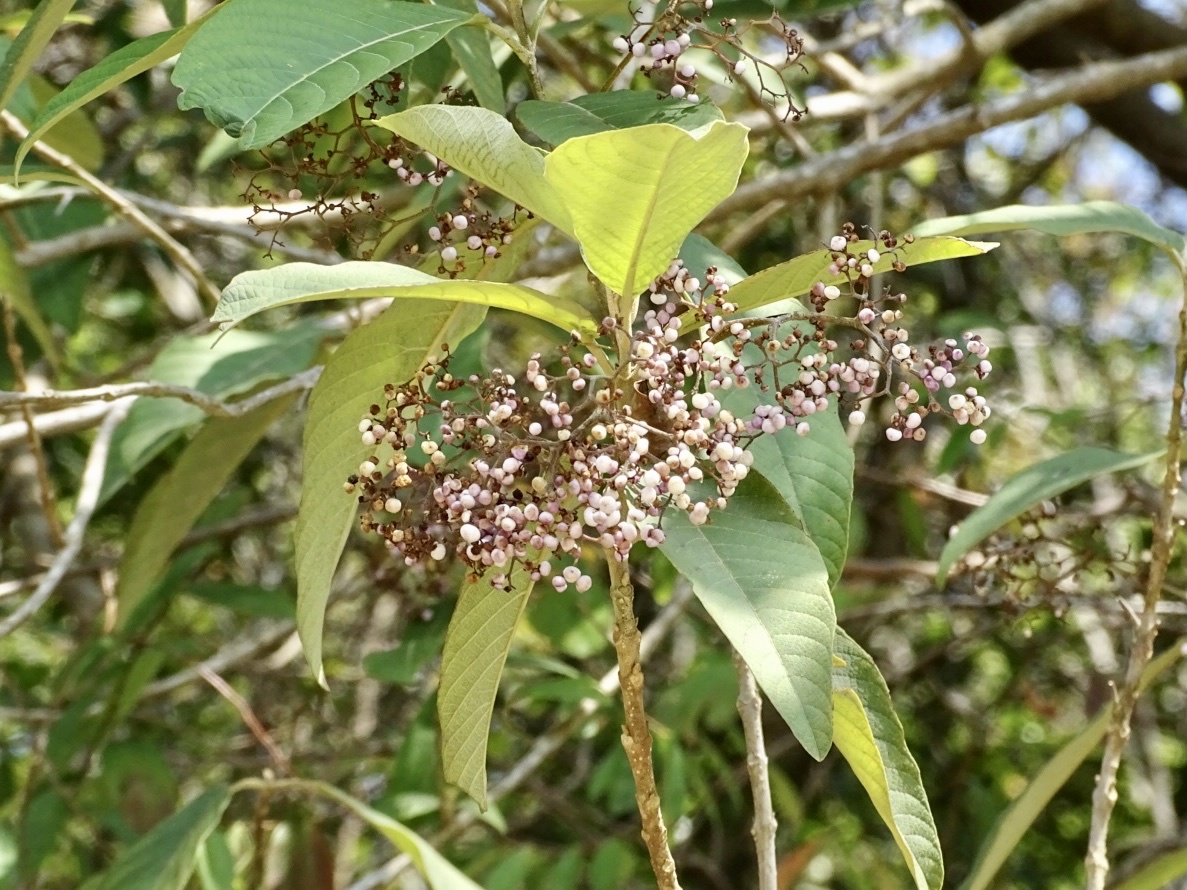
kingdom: Plantae
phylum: Tracheophyta
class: Magnoliopsida
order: Lamiales
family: Lamiaceae
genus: Callicarpa
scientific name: Callicarpa nudiflora
